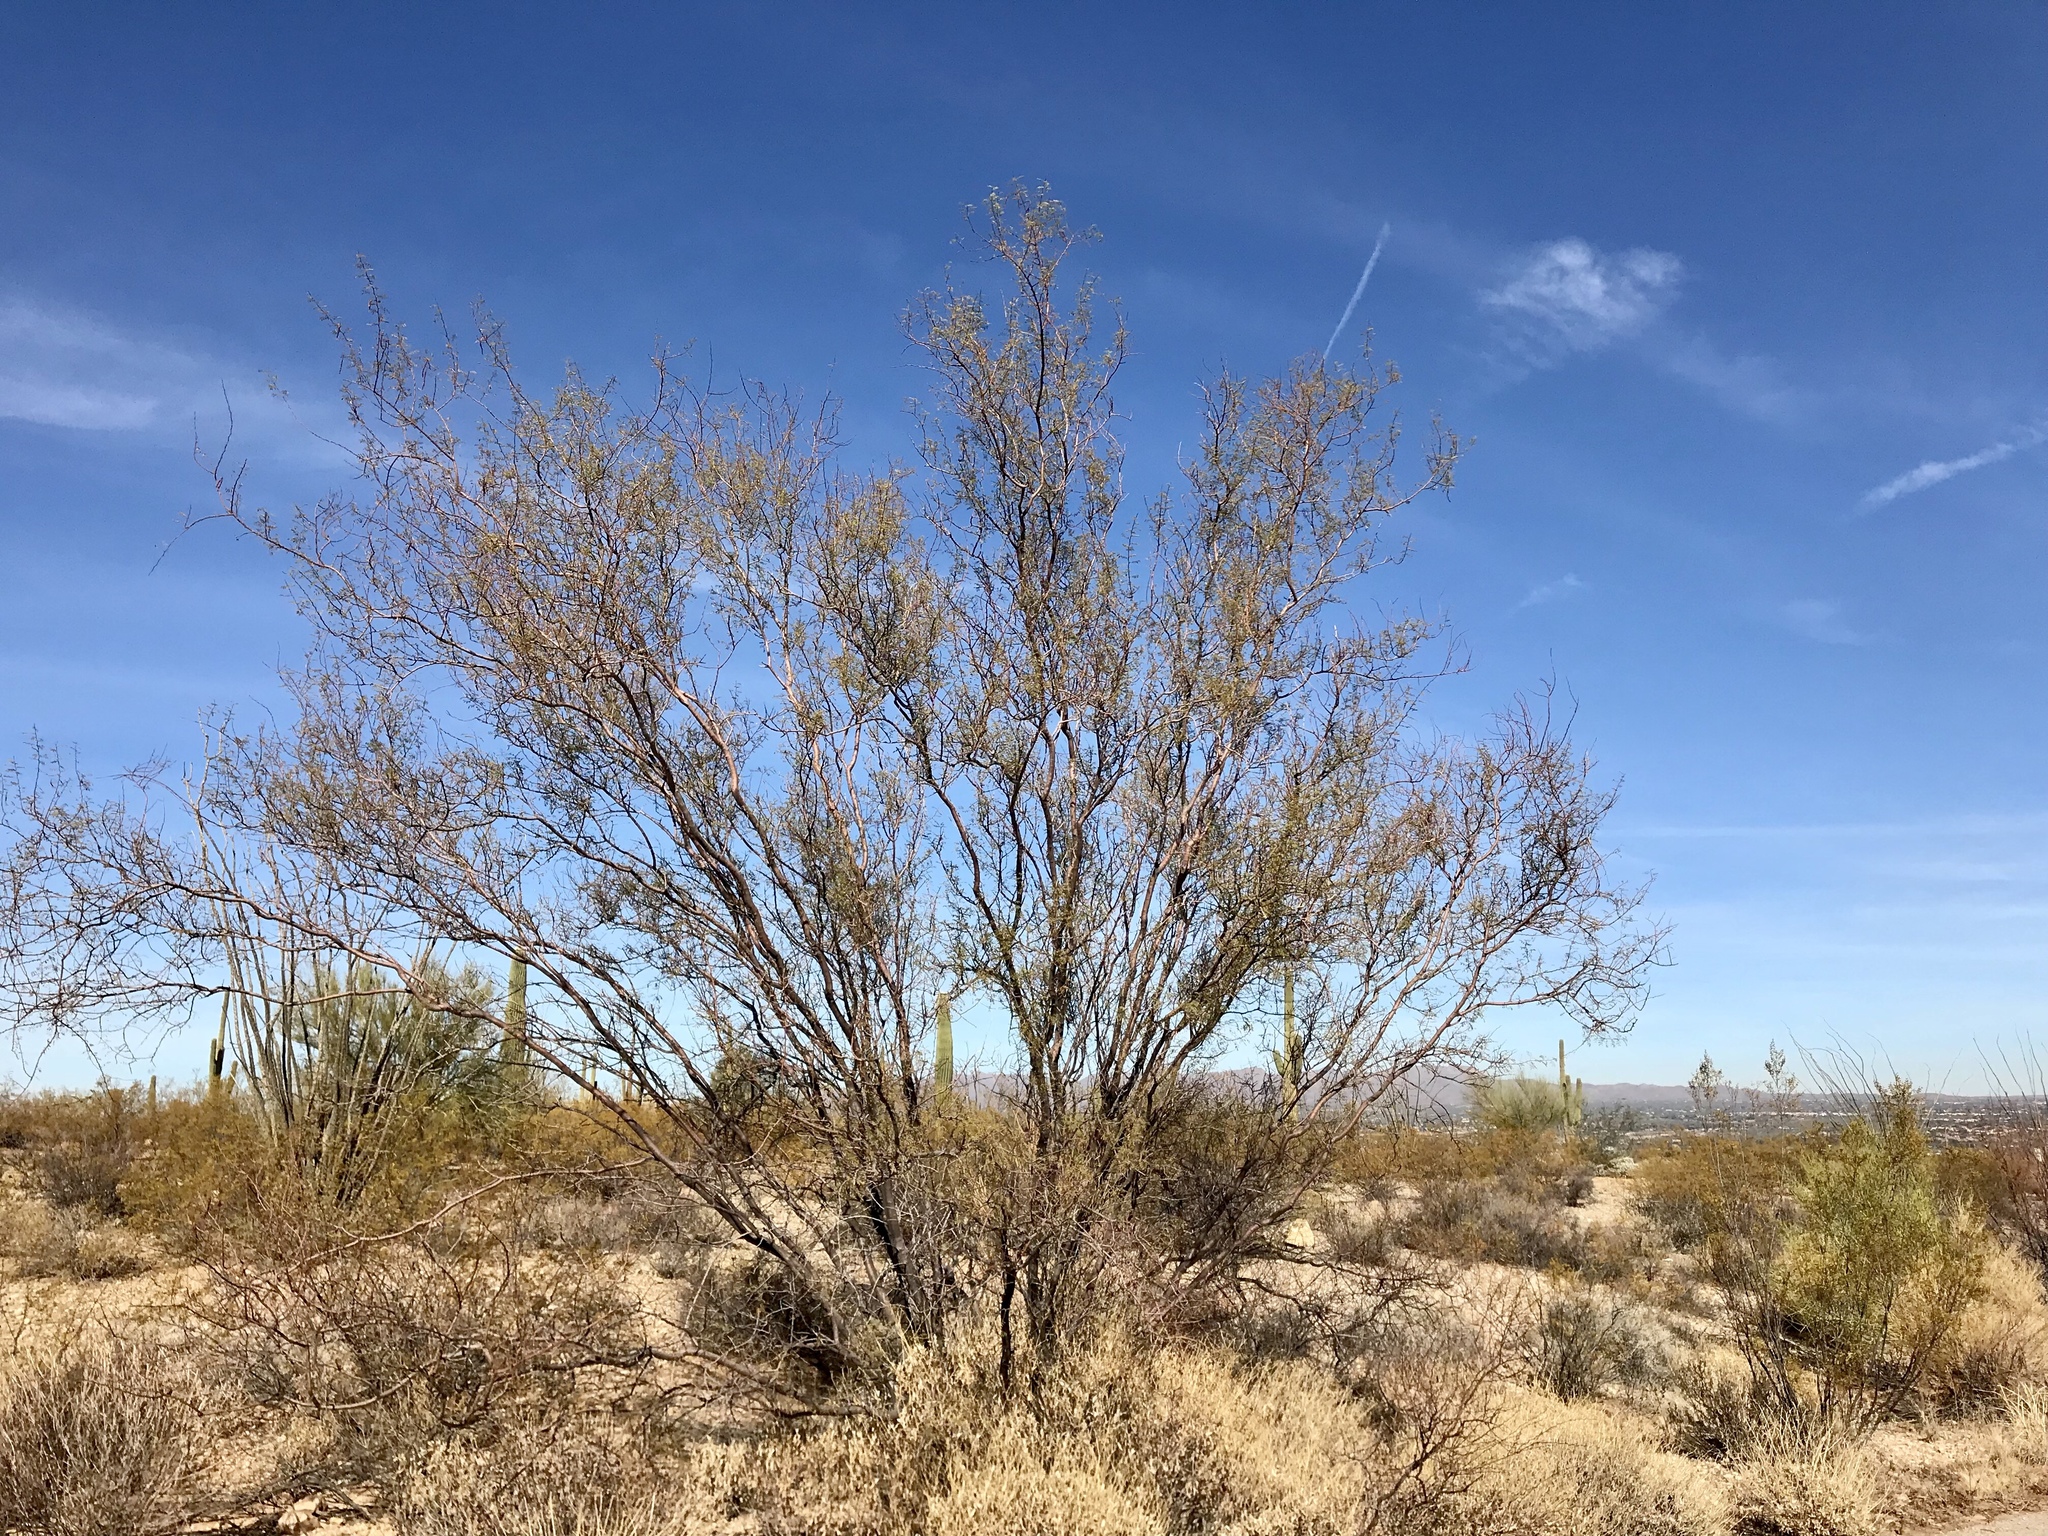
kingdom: Plantae
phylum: Tracheophyta
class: Magnoliopsida
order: Fabales
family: Fabaceae
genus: Olneya
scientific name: Olneya tesota
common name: Desert ironwood
